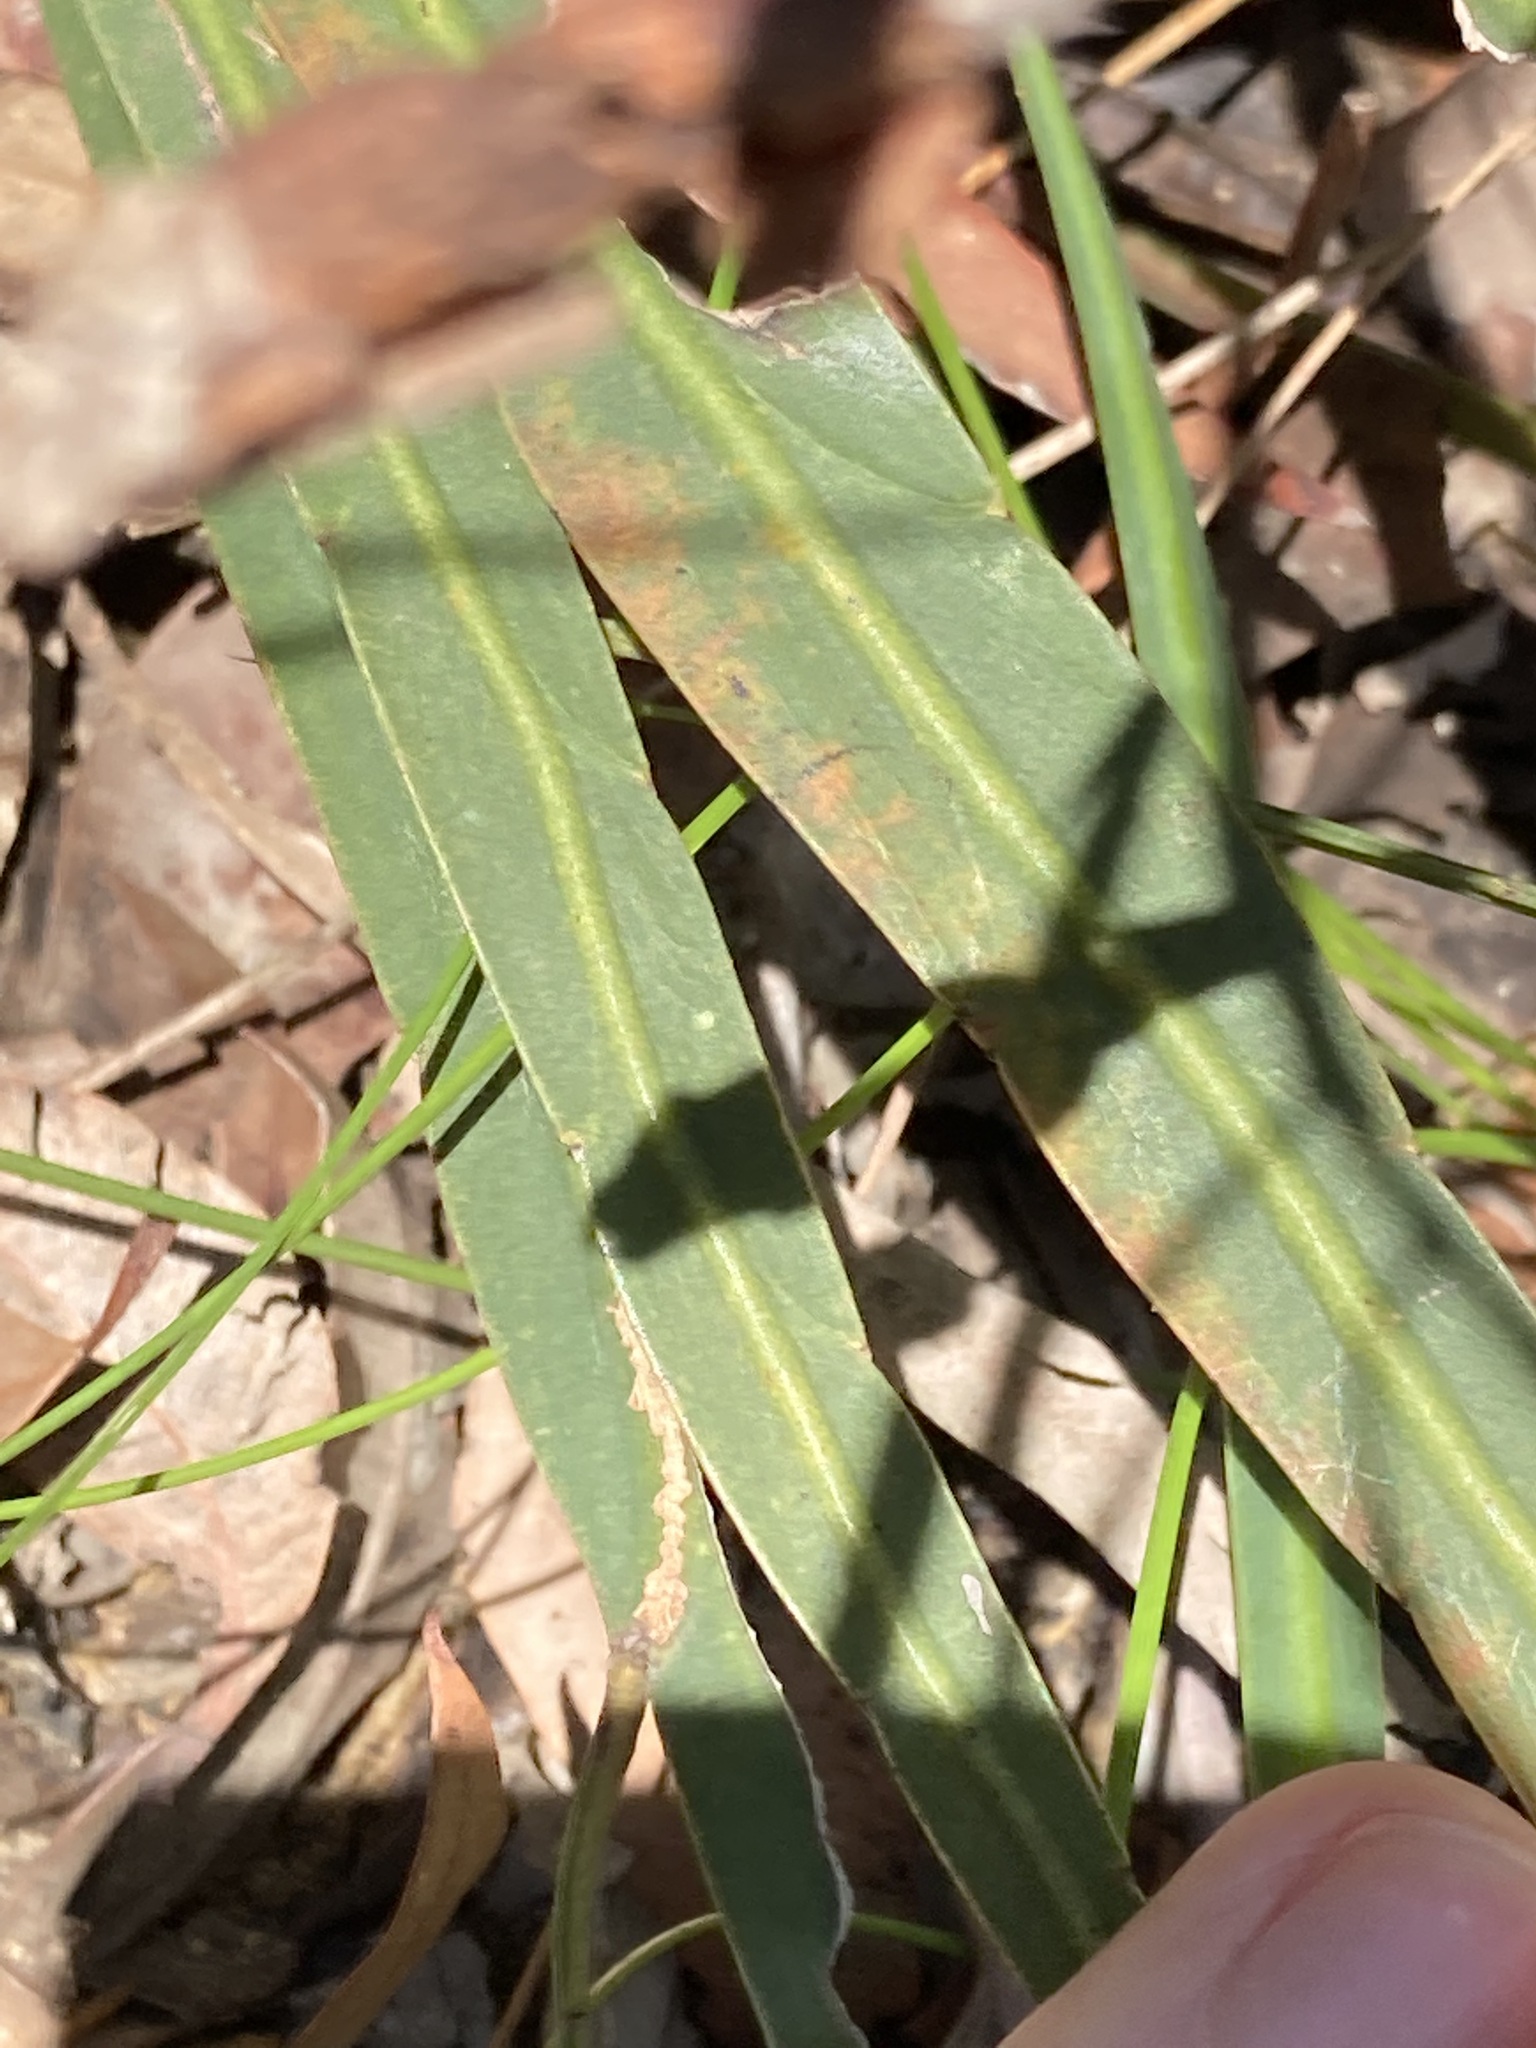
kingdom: Plantae
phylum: Tracheophyta
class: Magnoliopsida
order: Fabales
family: Fabaceae
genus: Bossiaea
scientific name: Bossiaea ensata
